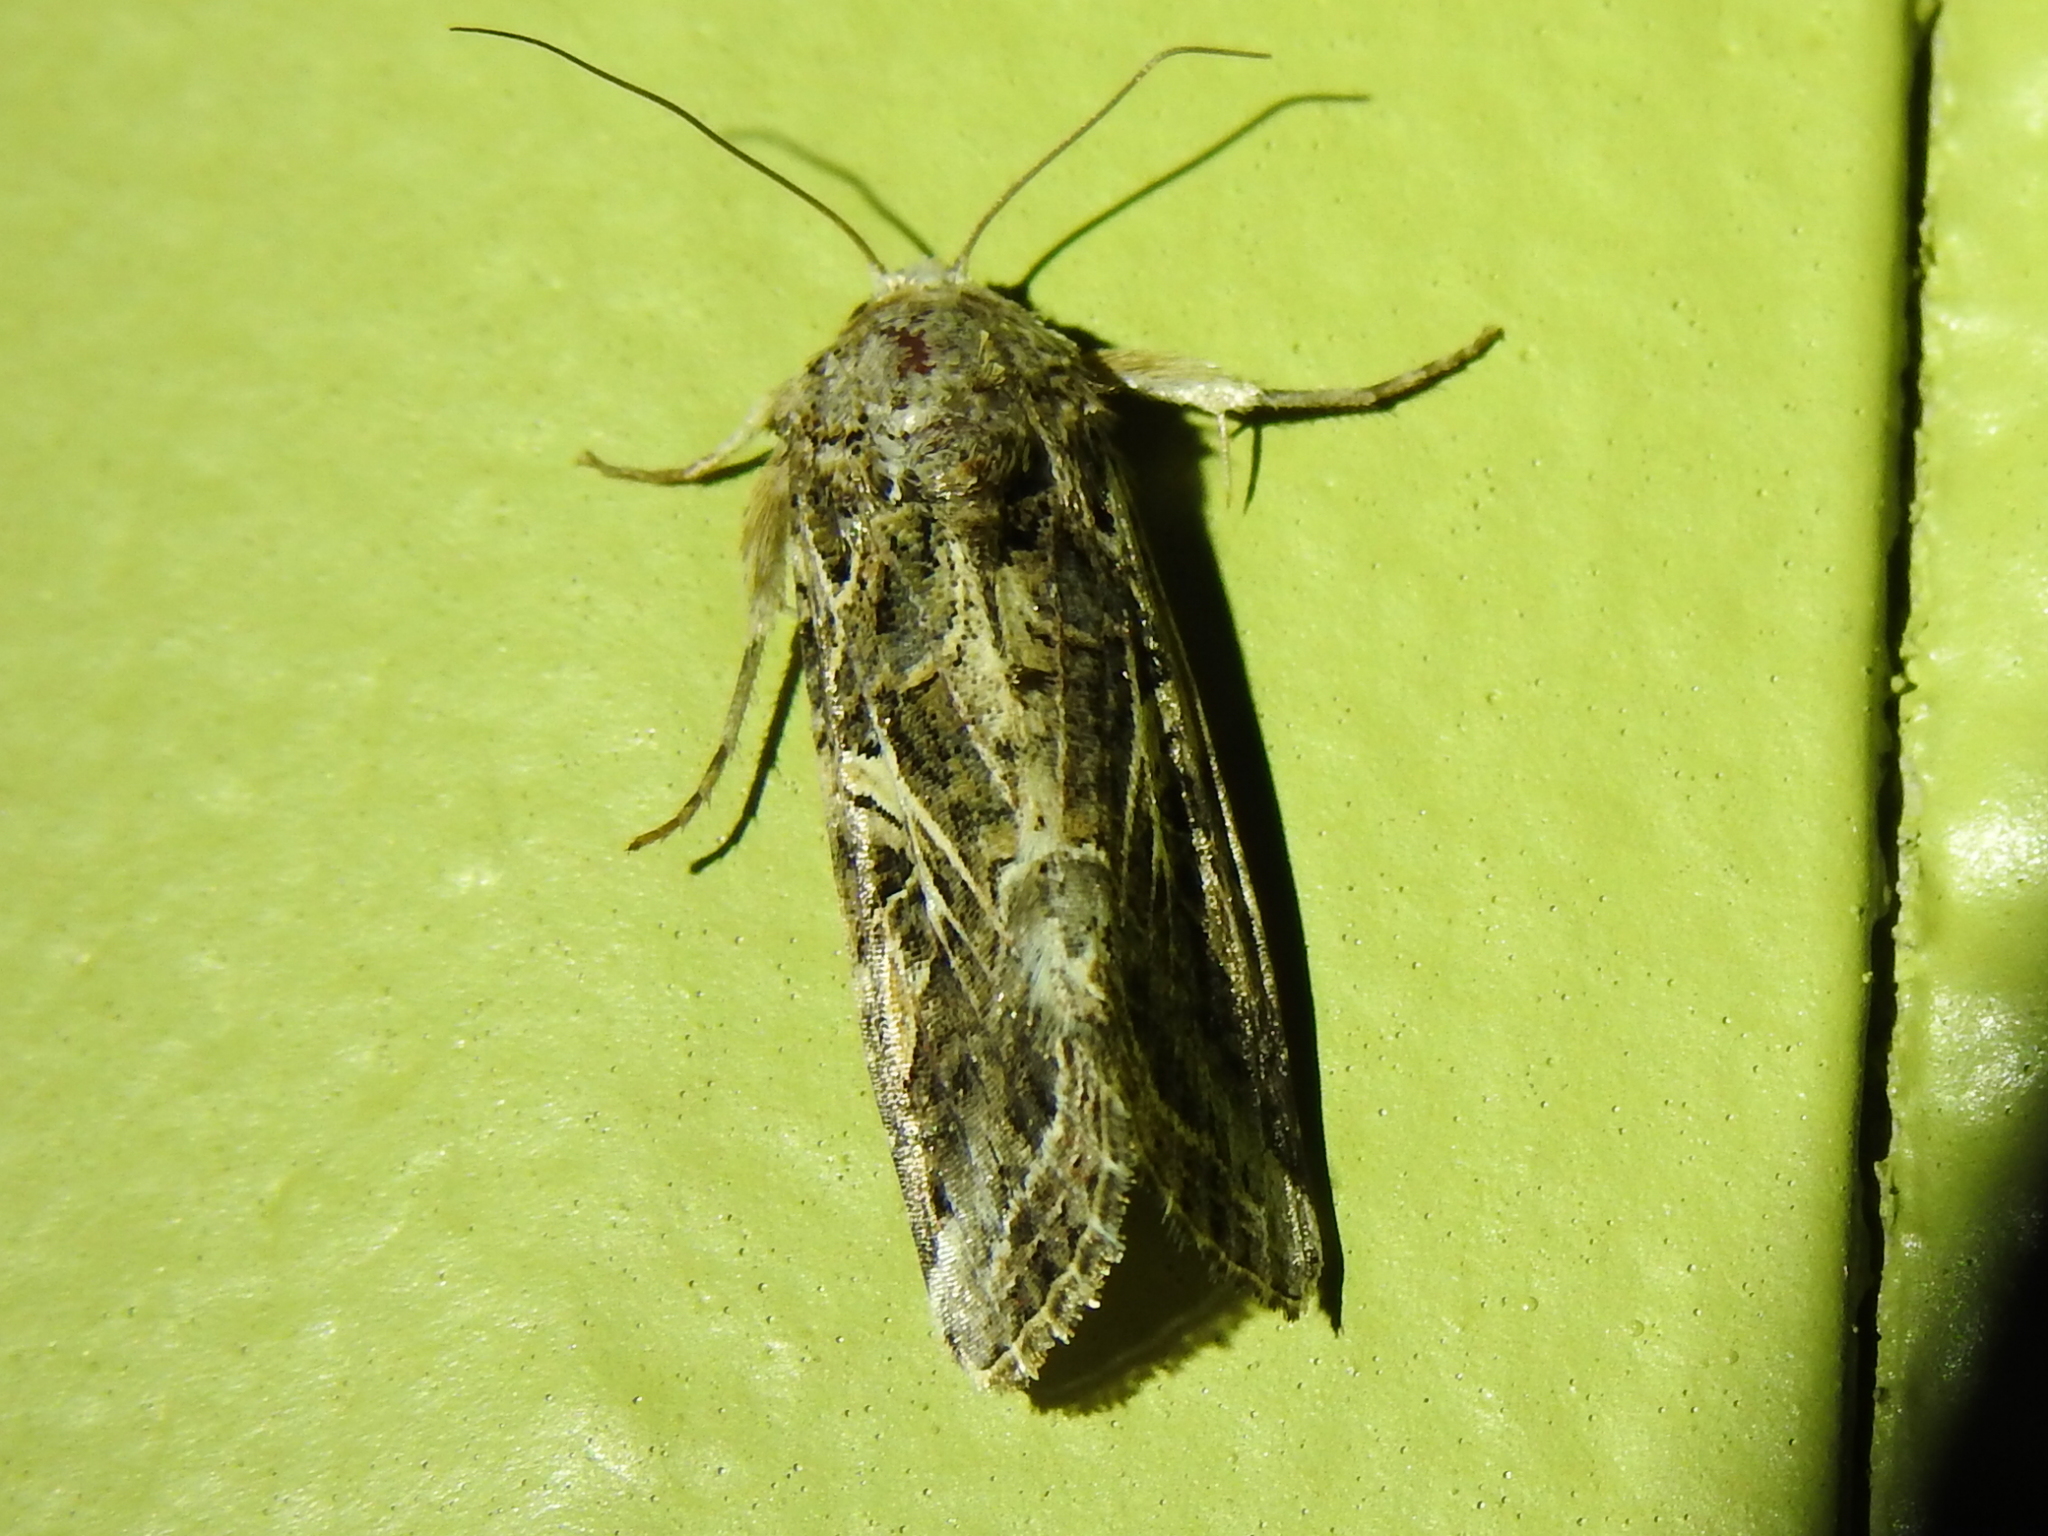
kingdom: Animalia
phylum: Arthropoda
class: Insecta
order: Lepidoptera
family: Noctuidae
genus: Spodoptera
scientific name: Spodoptera ornithogalli
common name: Yellow-striped armyworm
